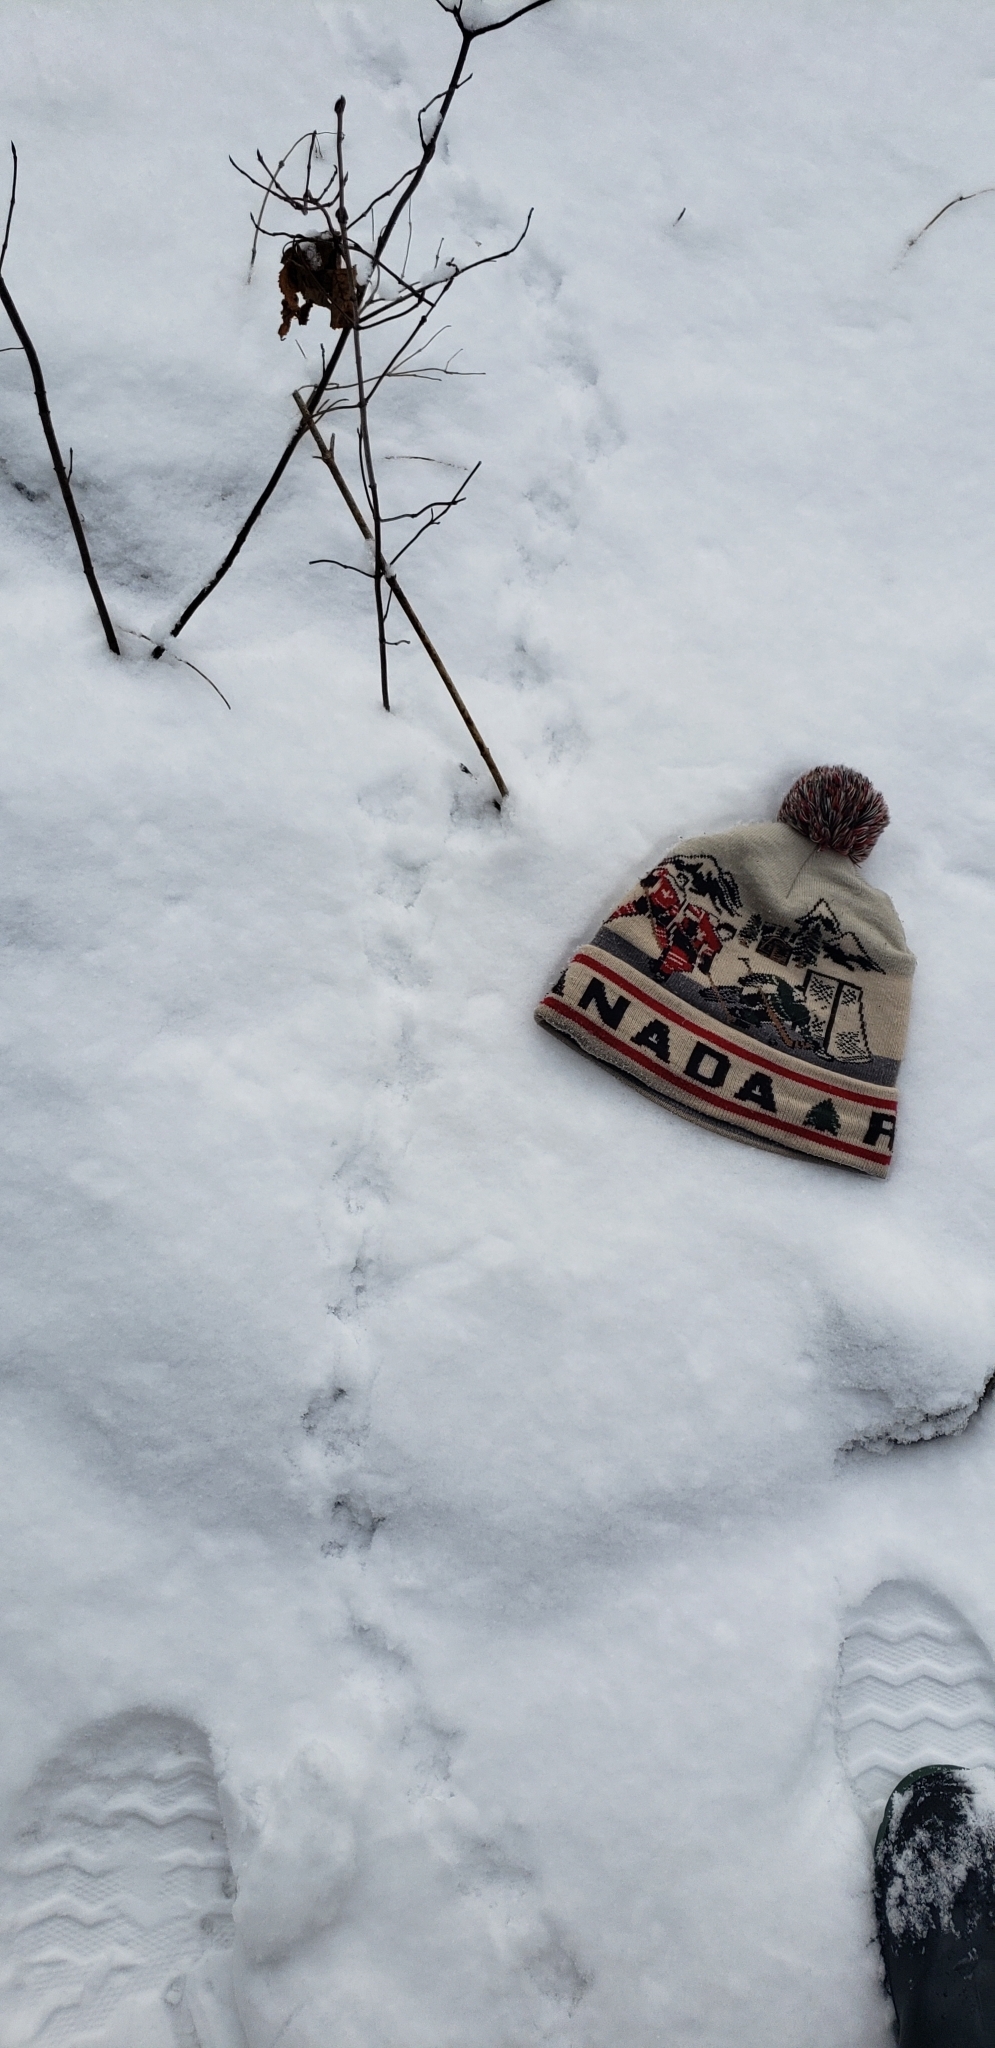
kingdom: Animalia
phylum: Chordata
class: Aves
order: Galliformes
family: Phasianidae
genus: Bonasa
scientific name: Bonasa umbellus
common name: Ruffed grouse
